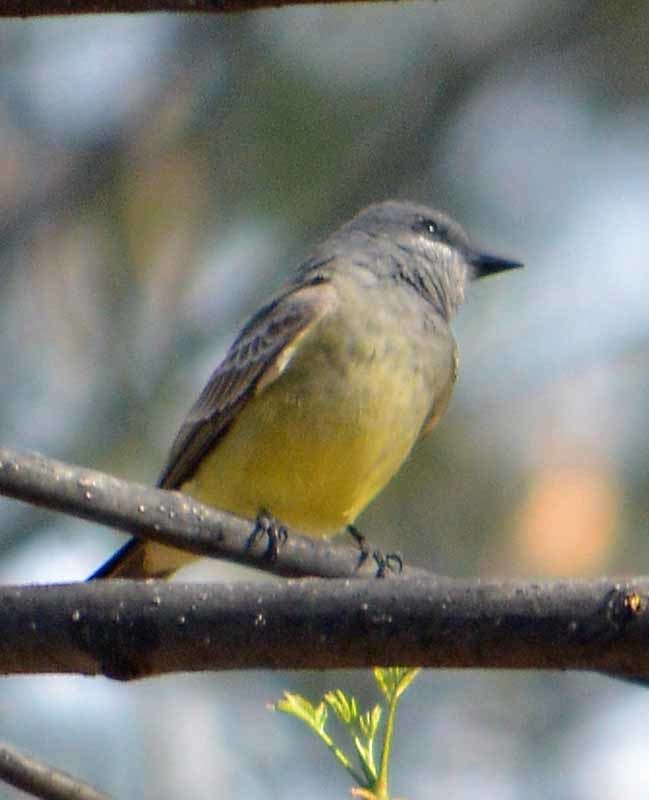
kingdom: Animalia
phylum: Chordata
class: Aves
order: Passeriformes
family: Tyrannidae
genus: Tyrannus
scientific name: Tyrannus vociferans
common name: Cassin's kingbird
